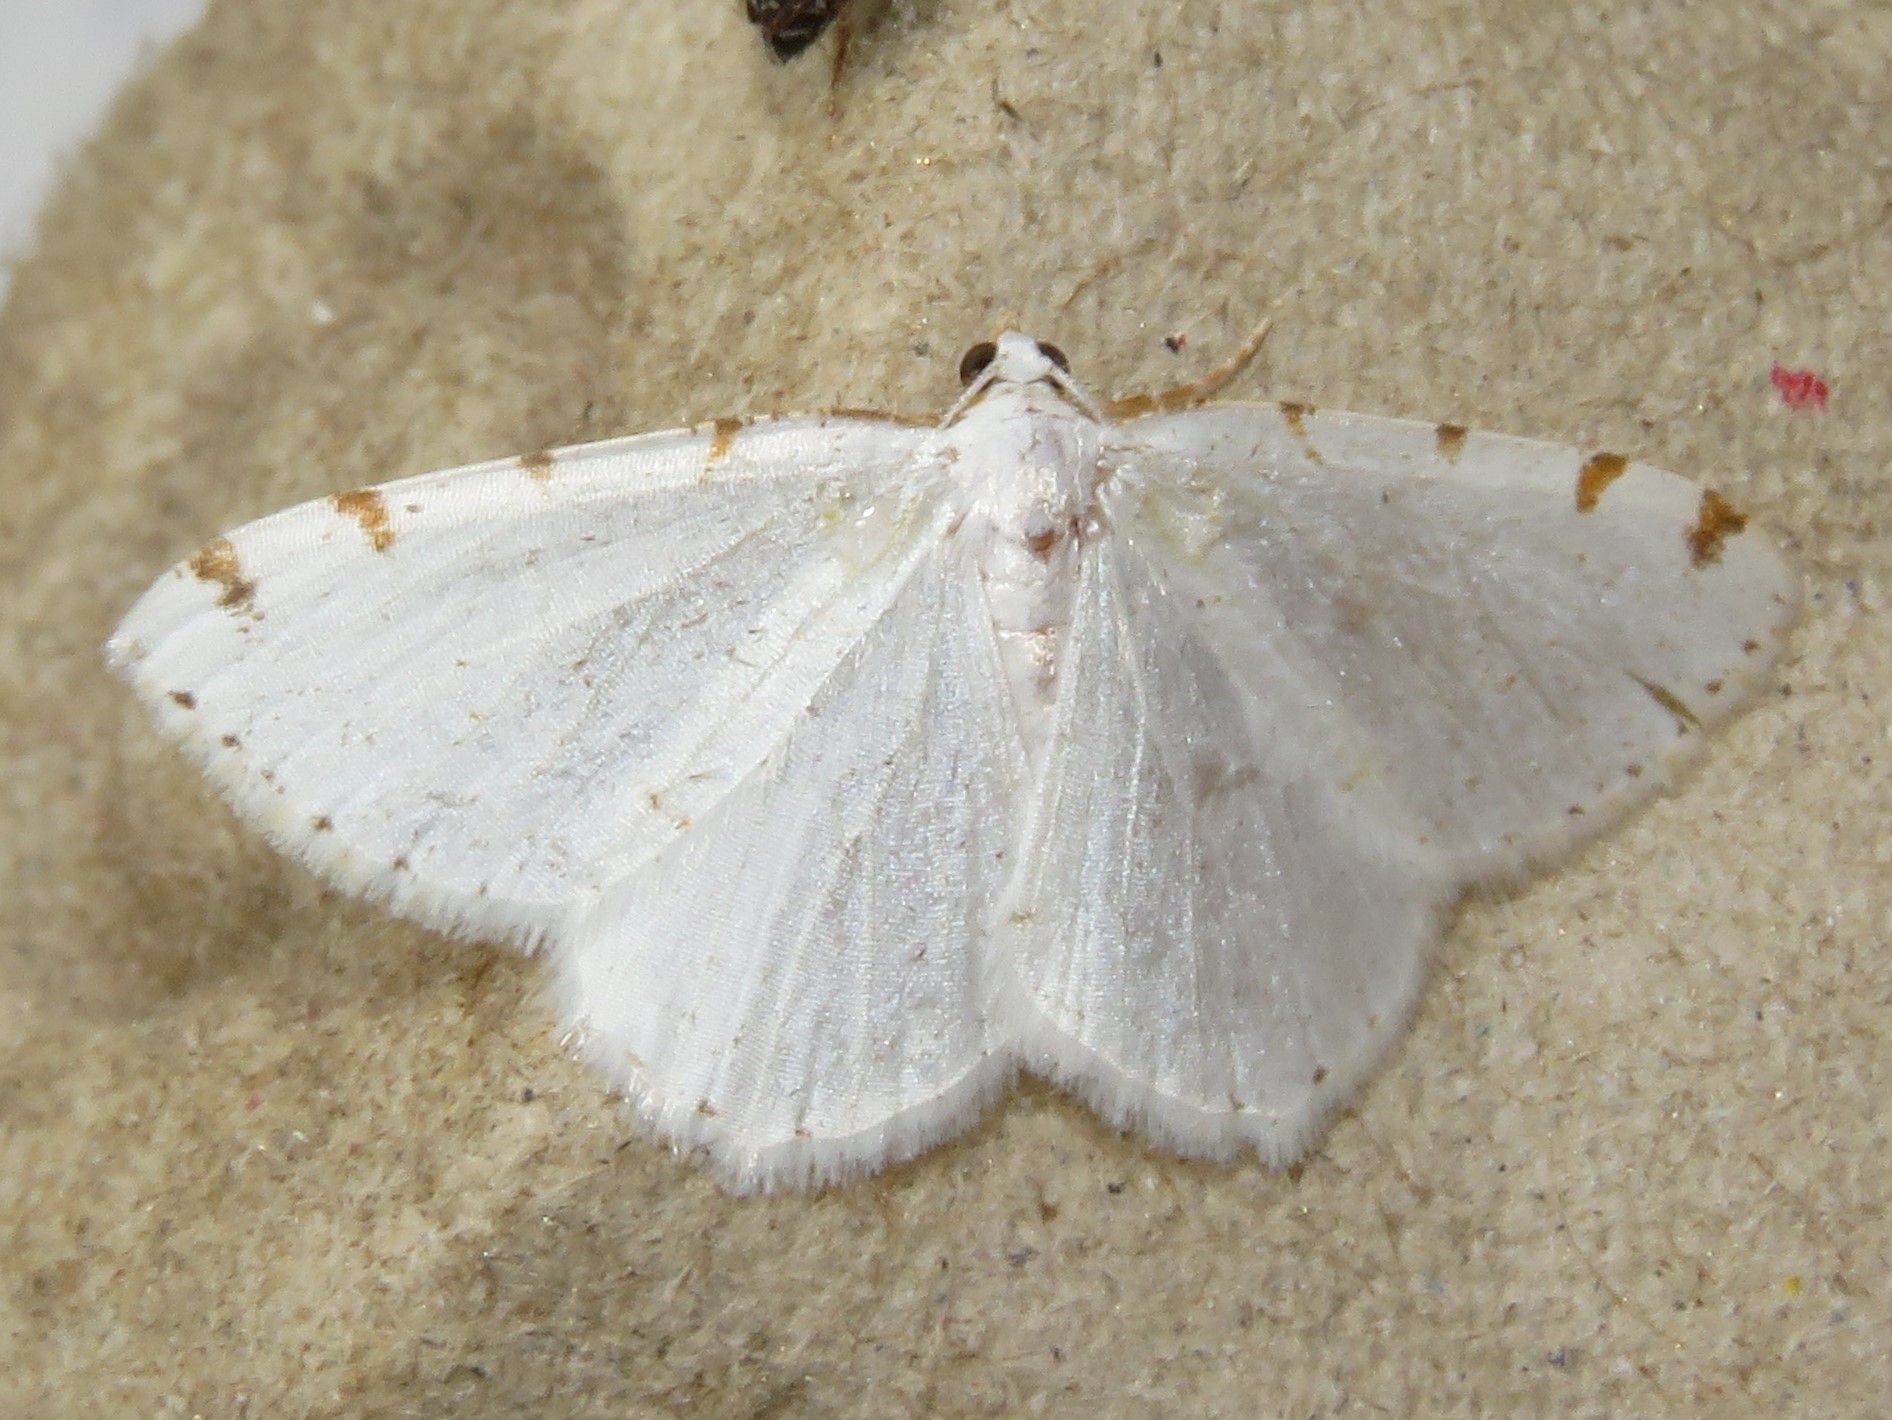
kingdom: Animalia
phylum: Arthropoda
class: Insecta
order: Lepidoptera
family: Geometridae
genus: Macaria
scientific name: Macaria pustularia
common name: Lesser maple spanworm moth
